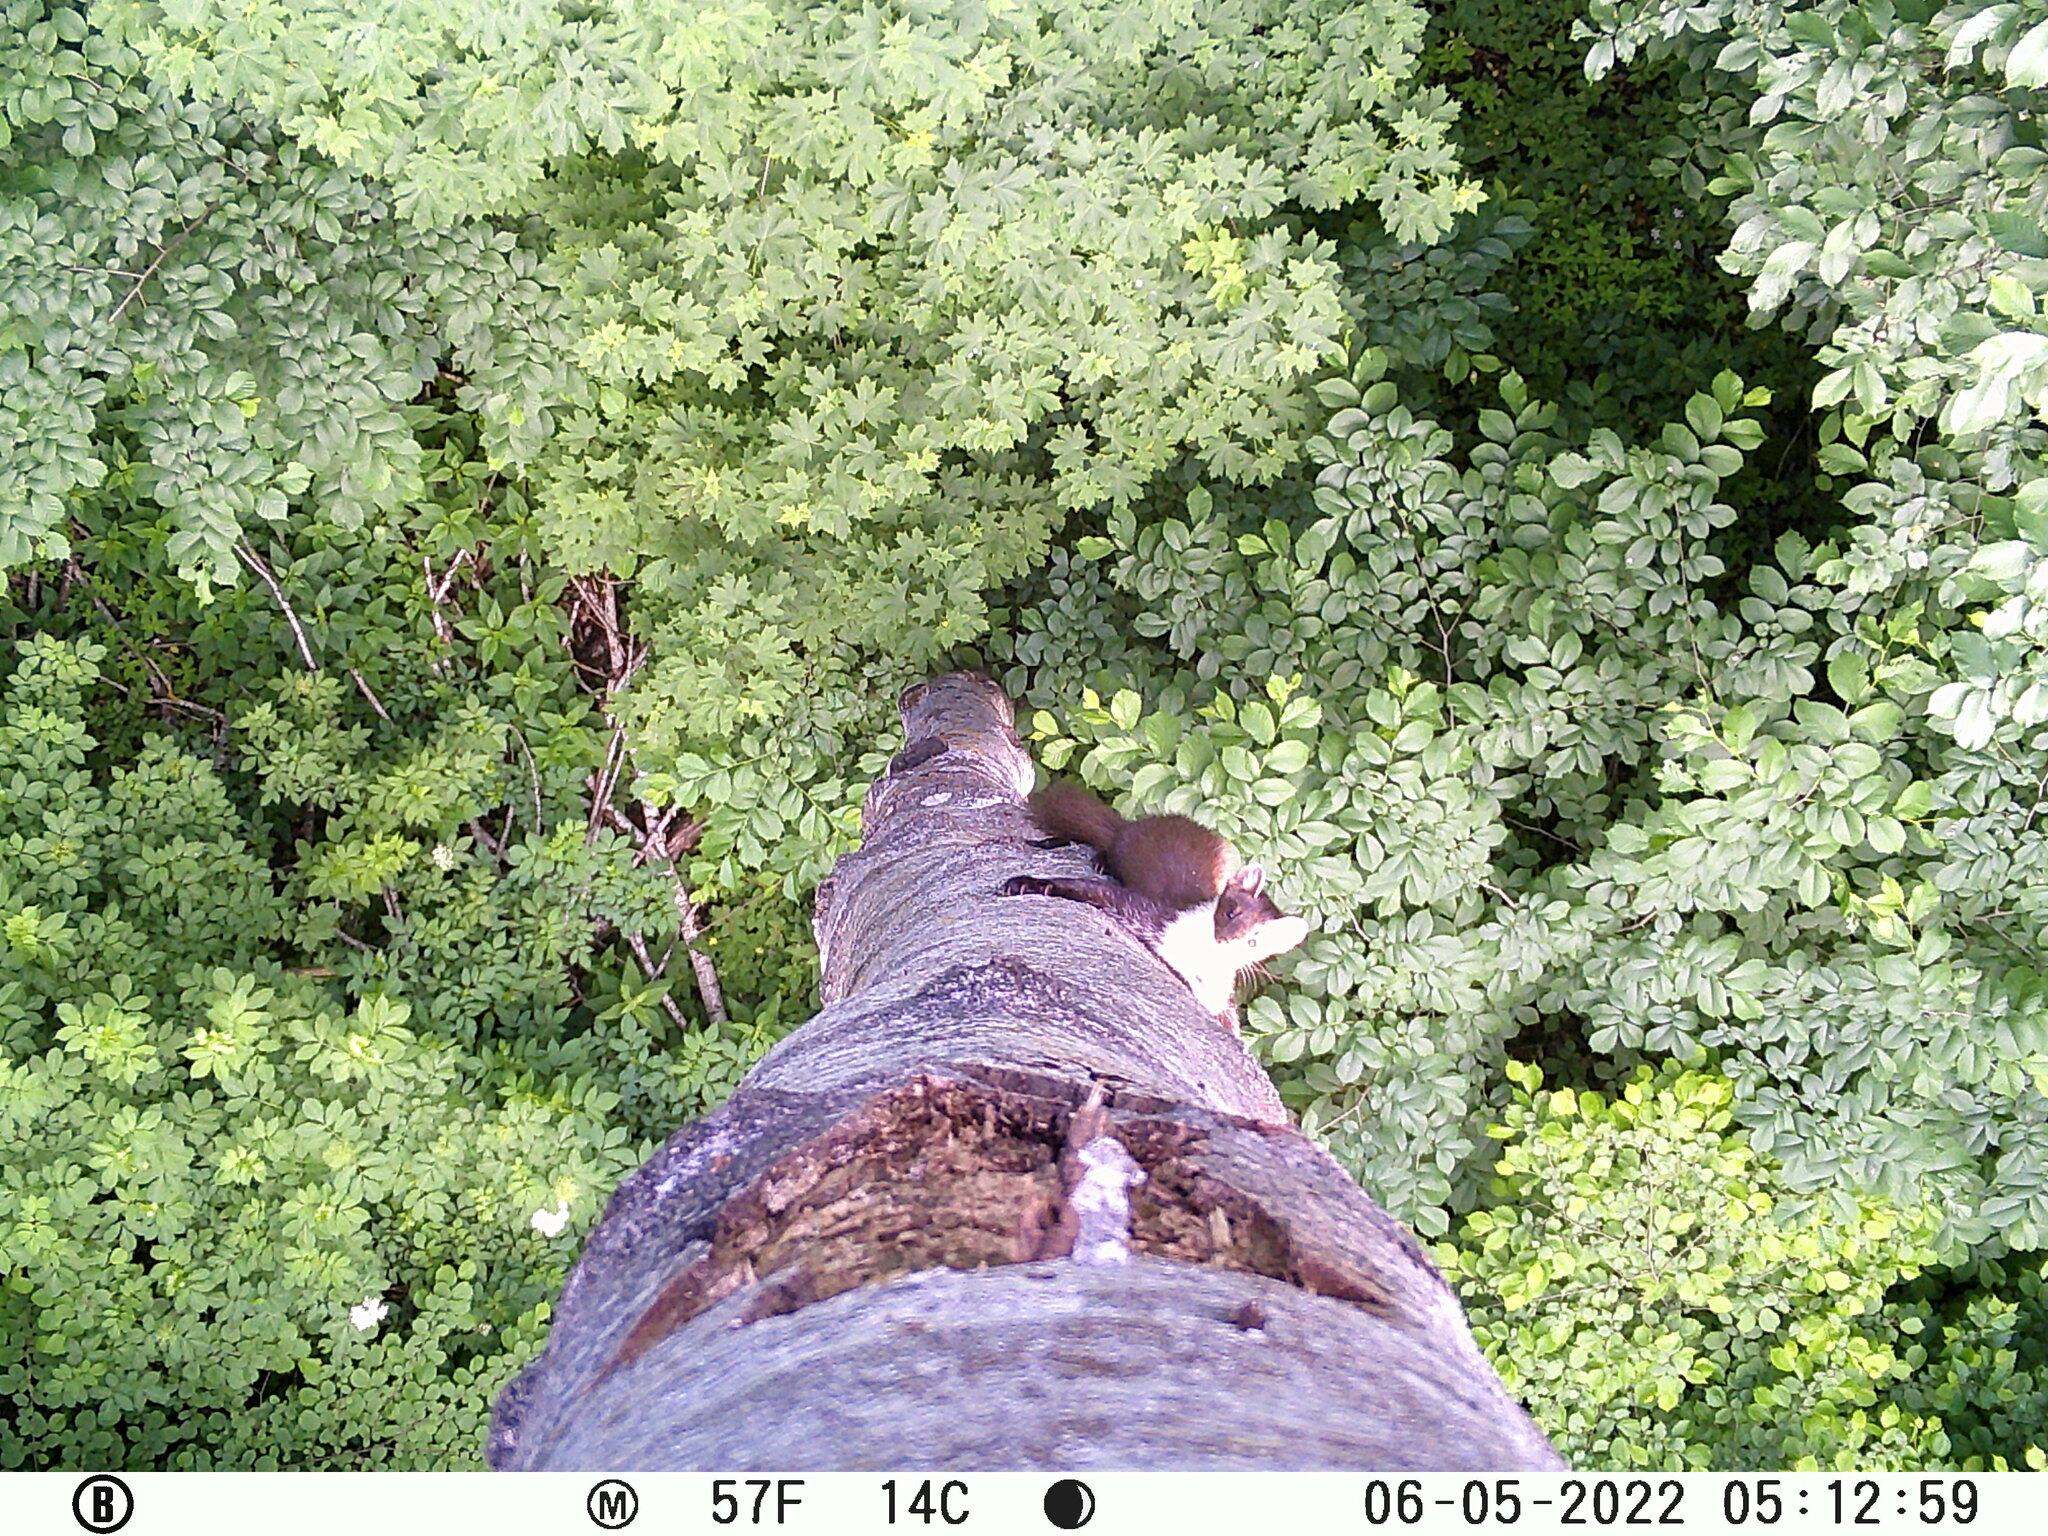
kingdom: Animalia
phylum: Chordata
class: Mammalia
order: Carnivora
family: Mustelidae
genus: Martes
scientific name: Martes martes
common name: European pine marten
